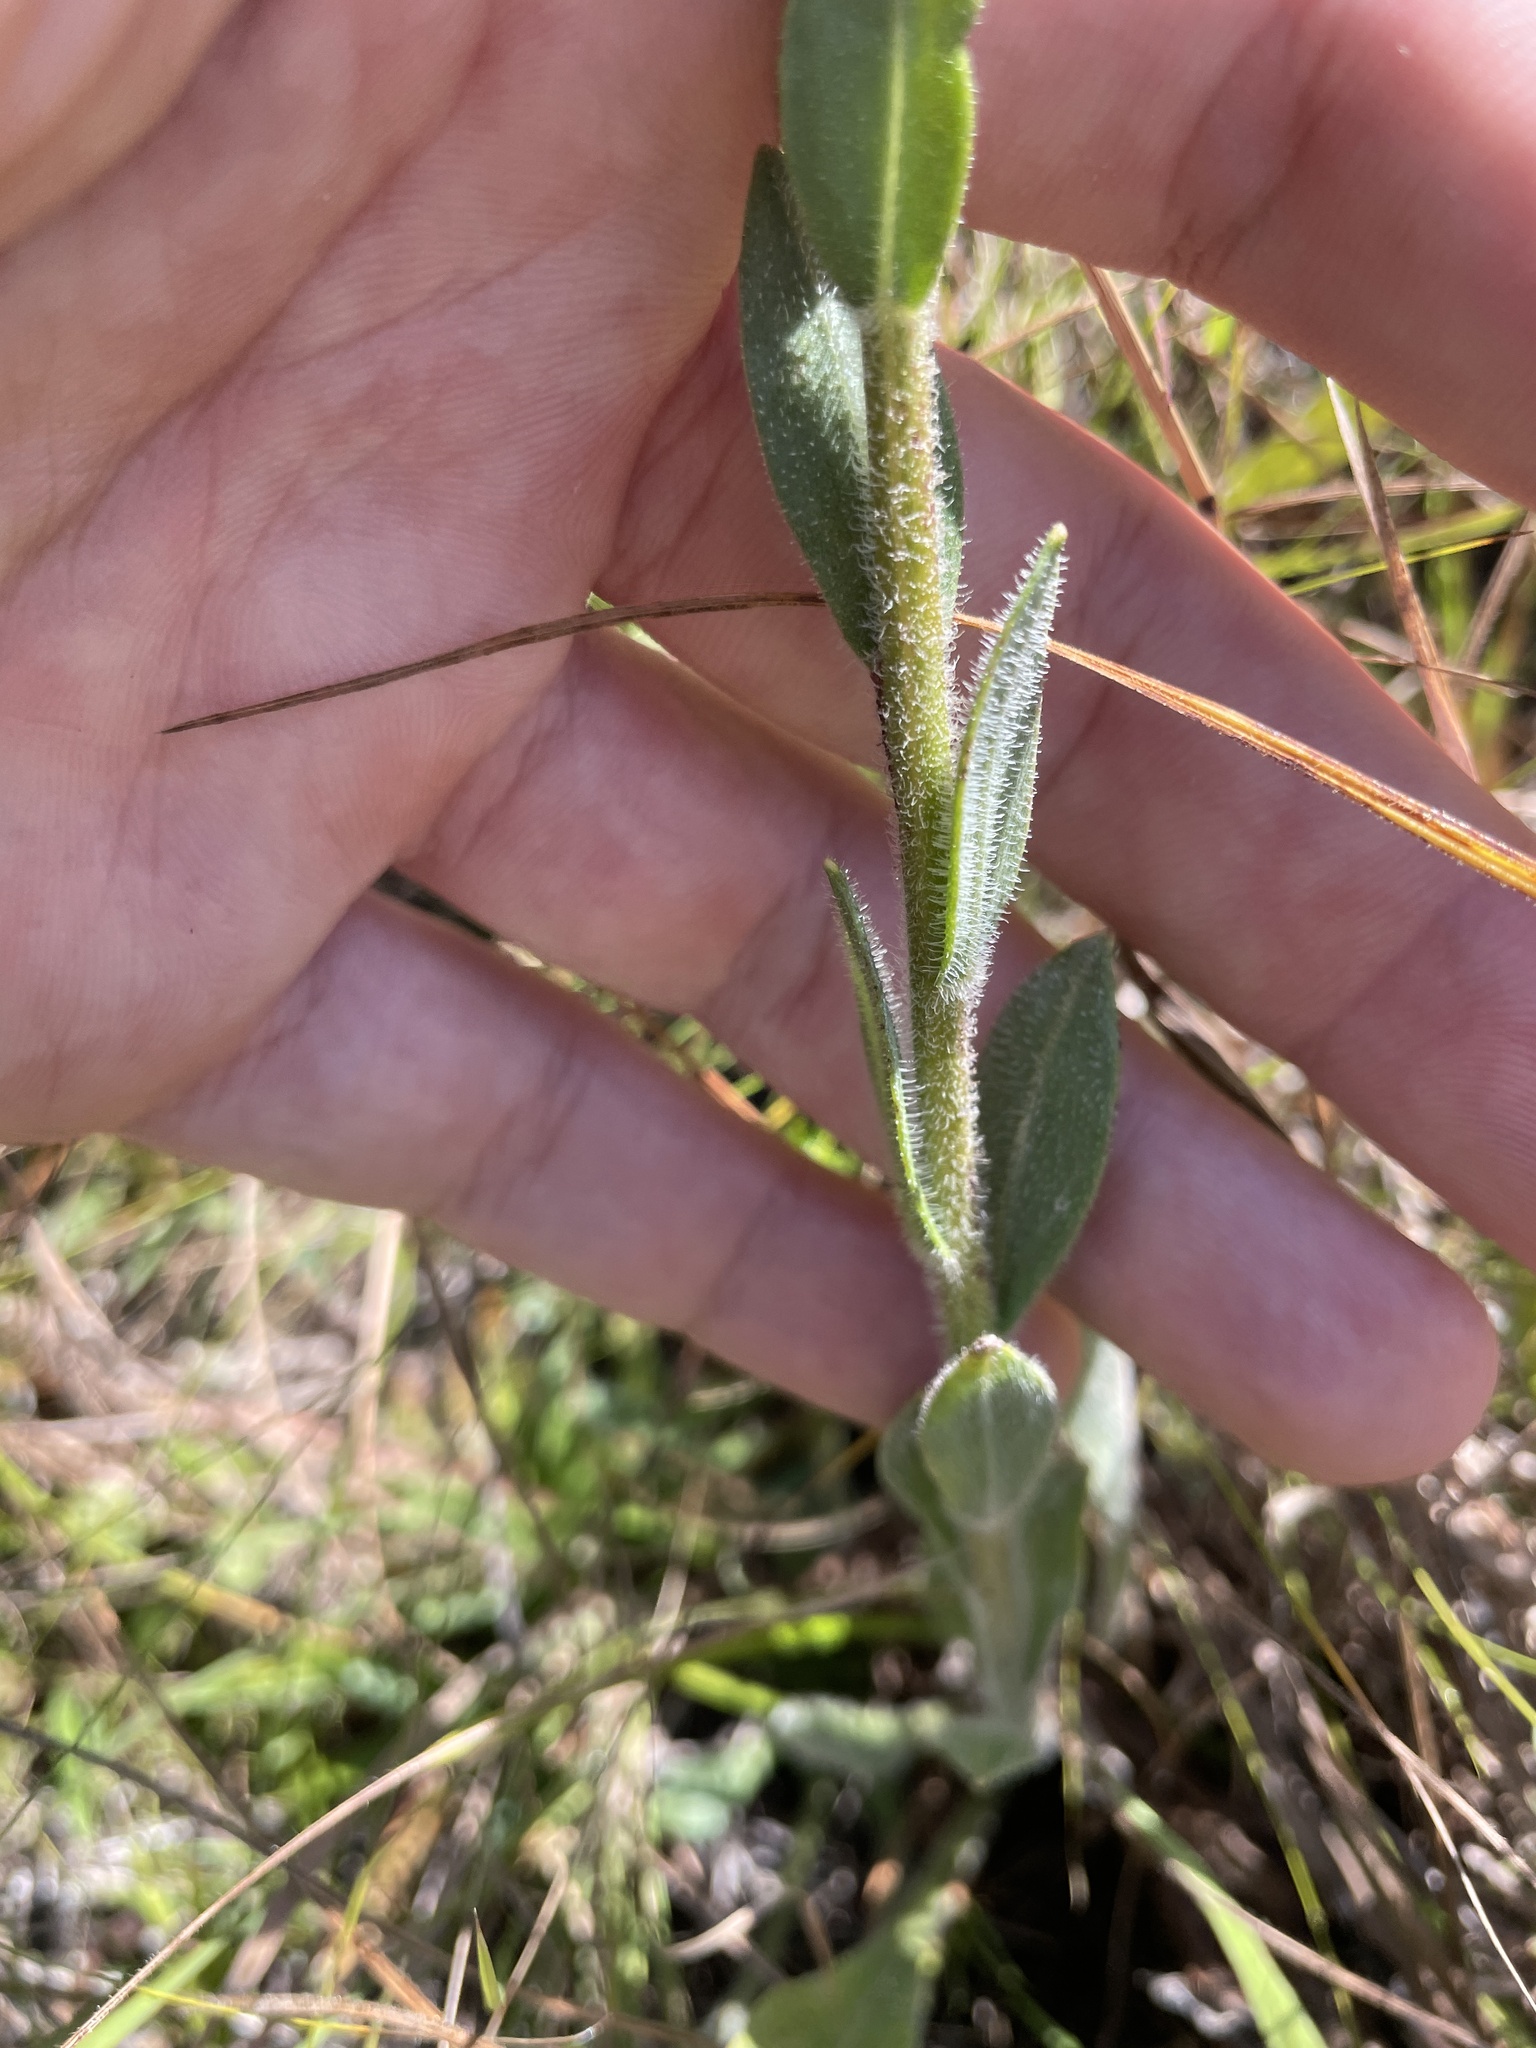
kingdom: Plantae
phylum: Tracheophyta
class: Magnoliopsida
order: Asterales
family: Asteraceae
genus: Carphephorus
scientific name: Carphephorus tomentosus
